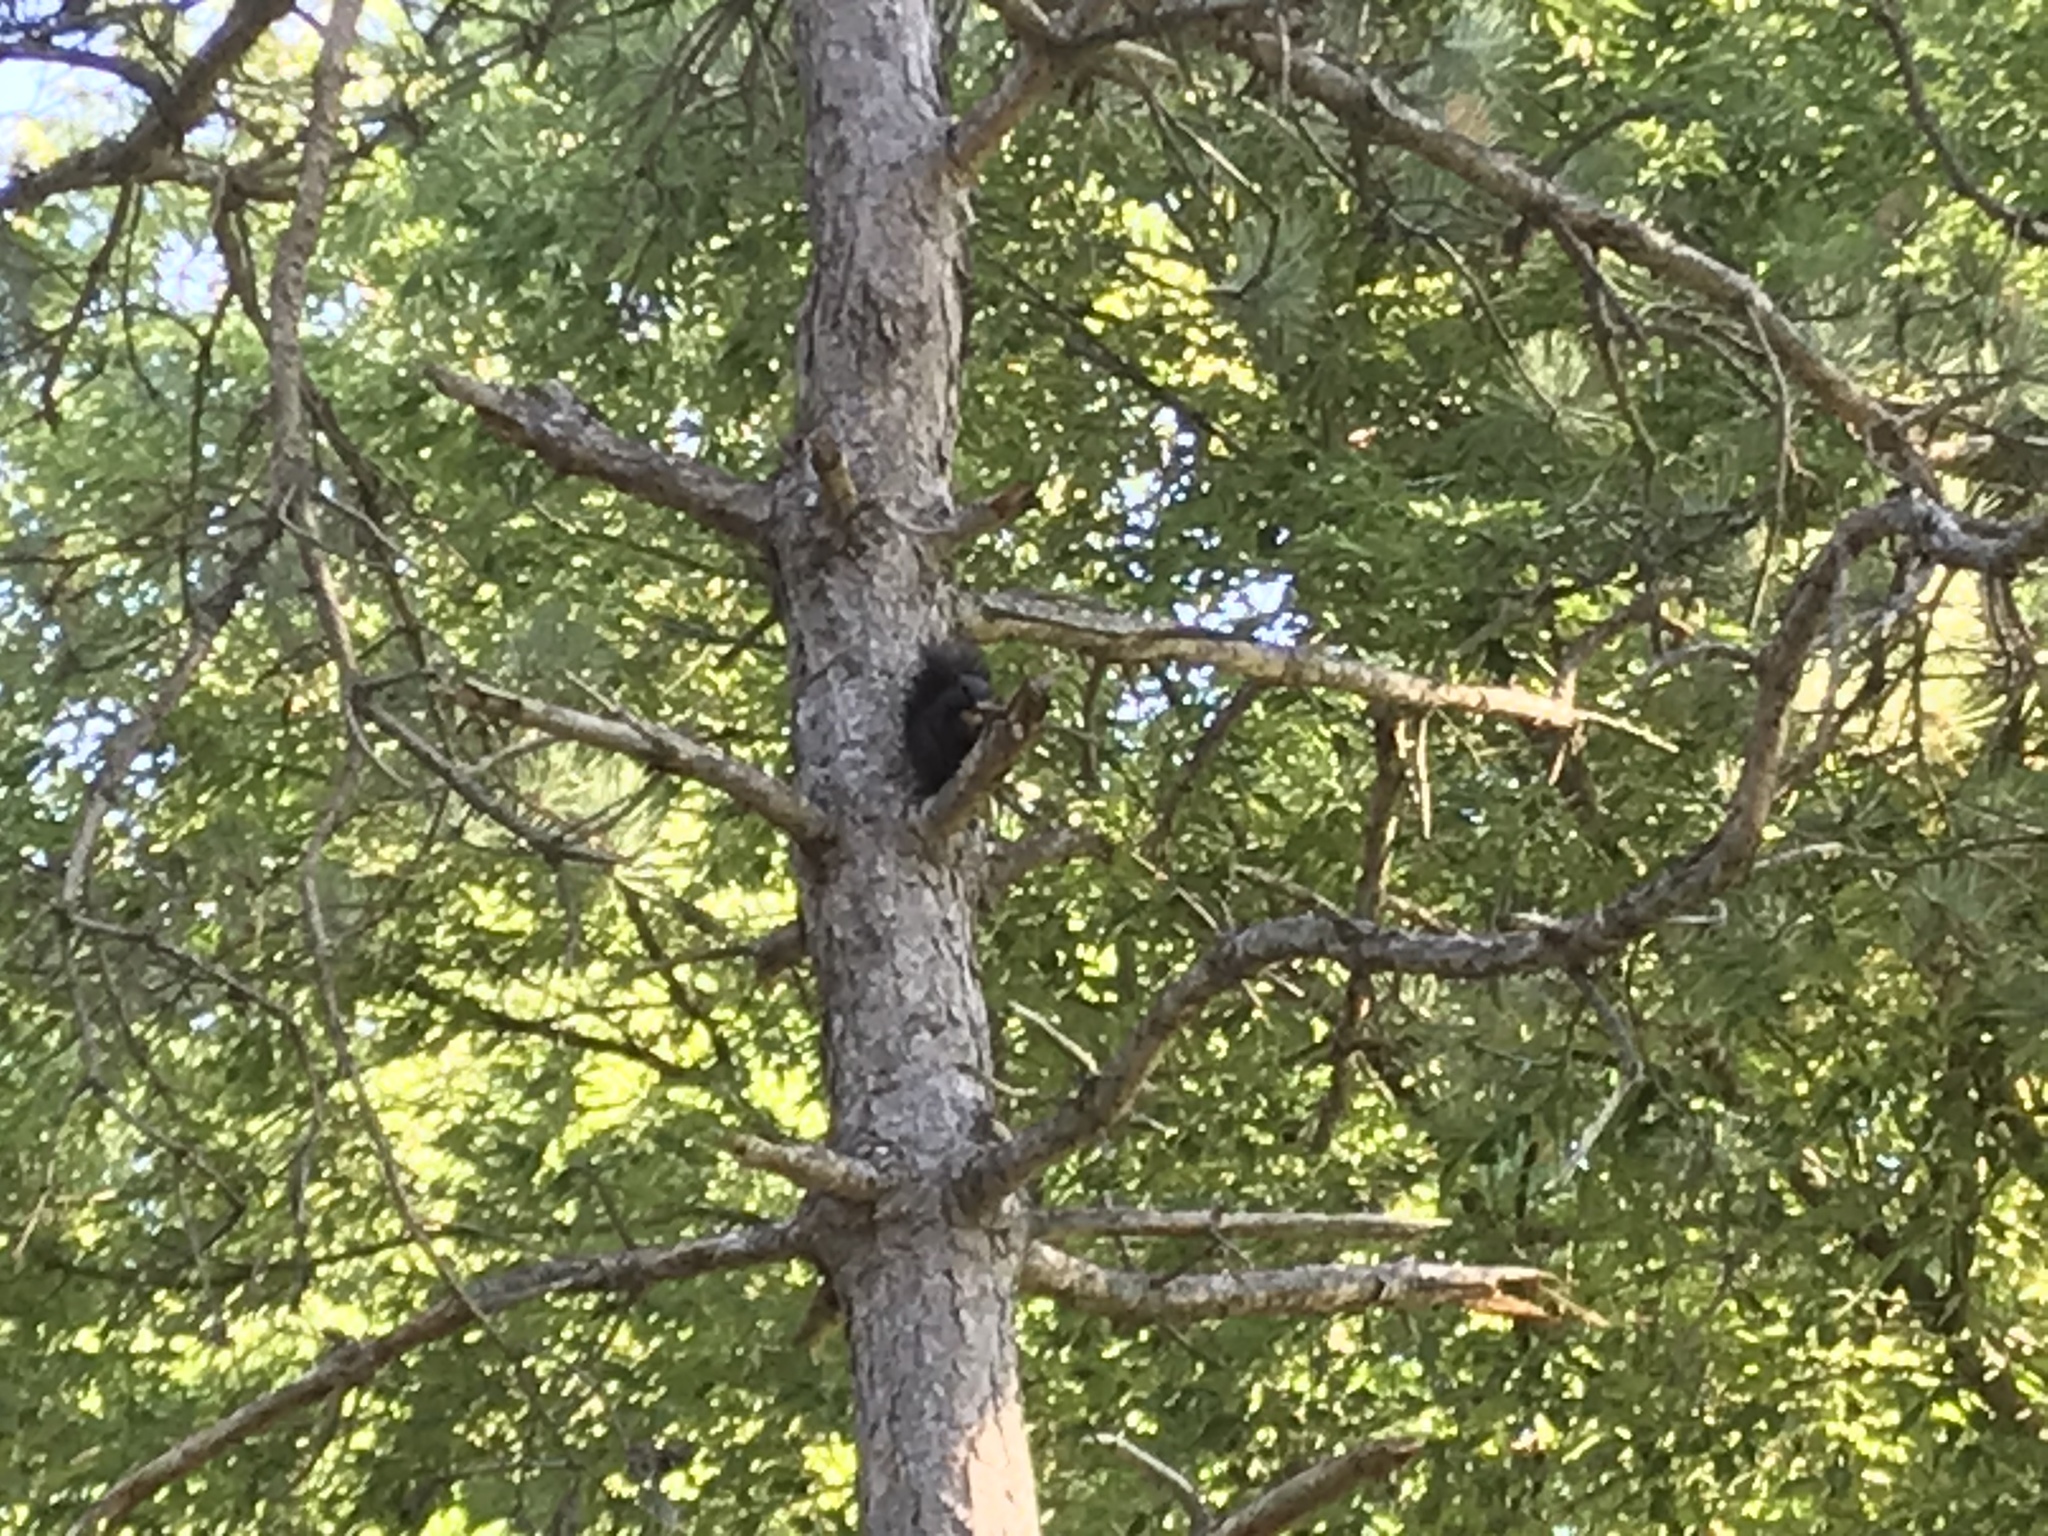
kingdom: Animalia
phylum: Chordata
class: Mammalia
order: Rodentia
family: Sciuridae
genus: Sciurus
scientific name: Sciurus carolinensis
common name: Eastern gray squirrel
